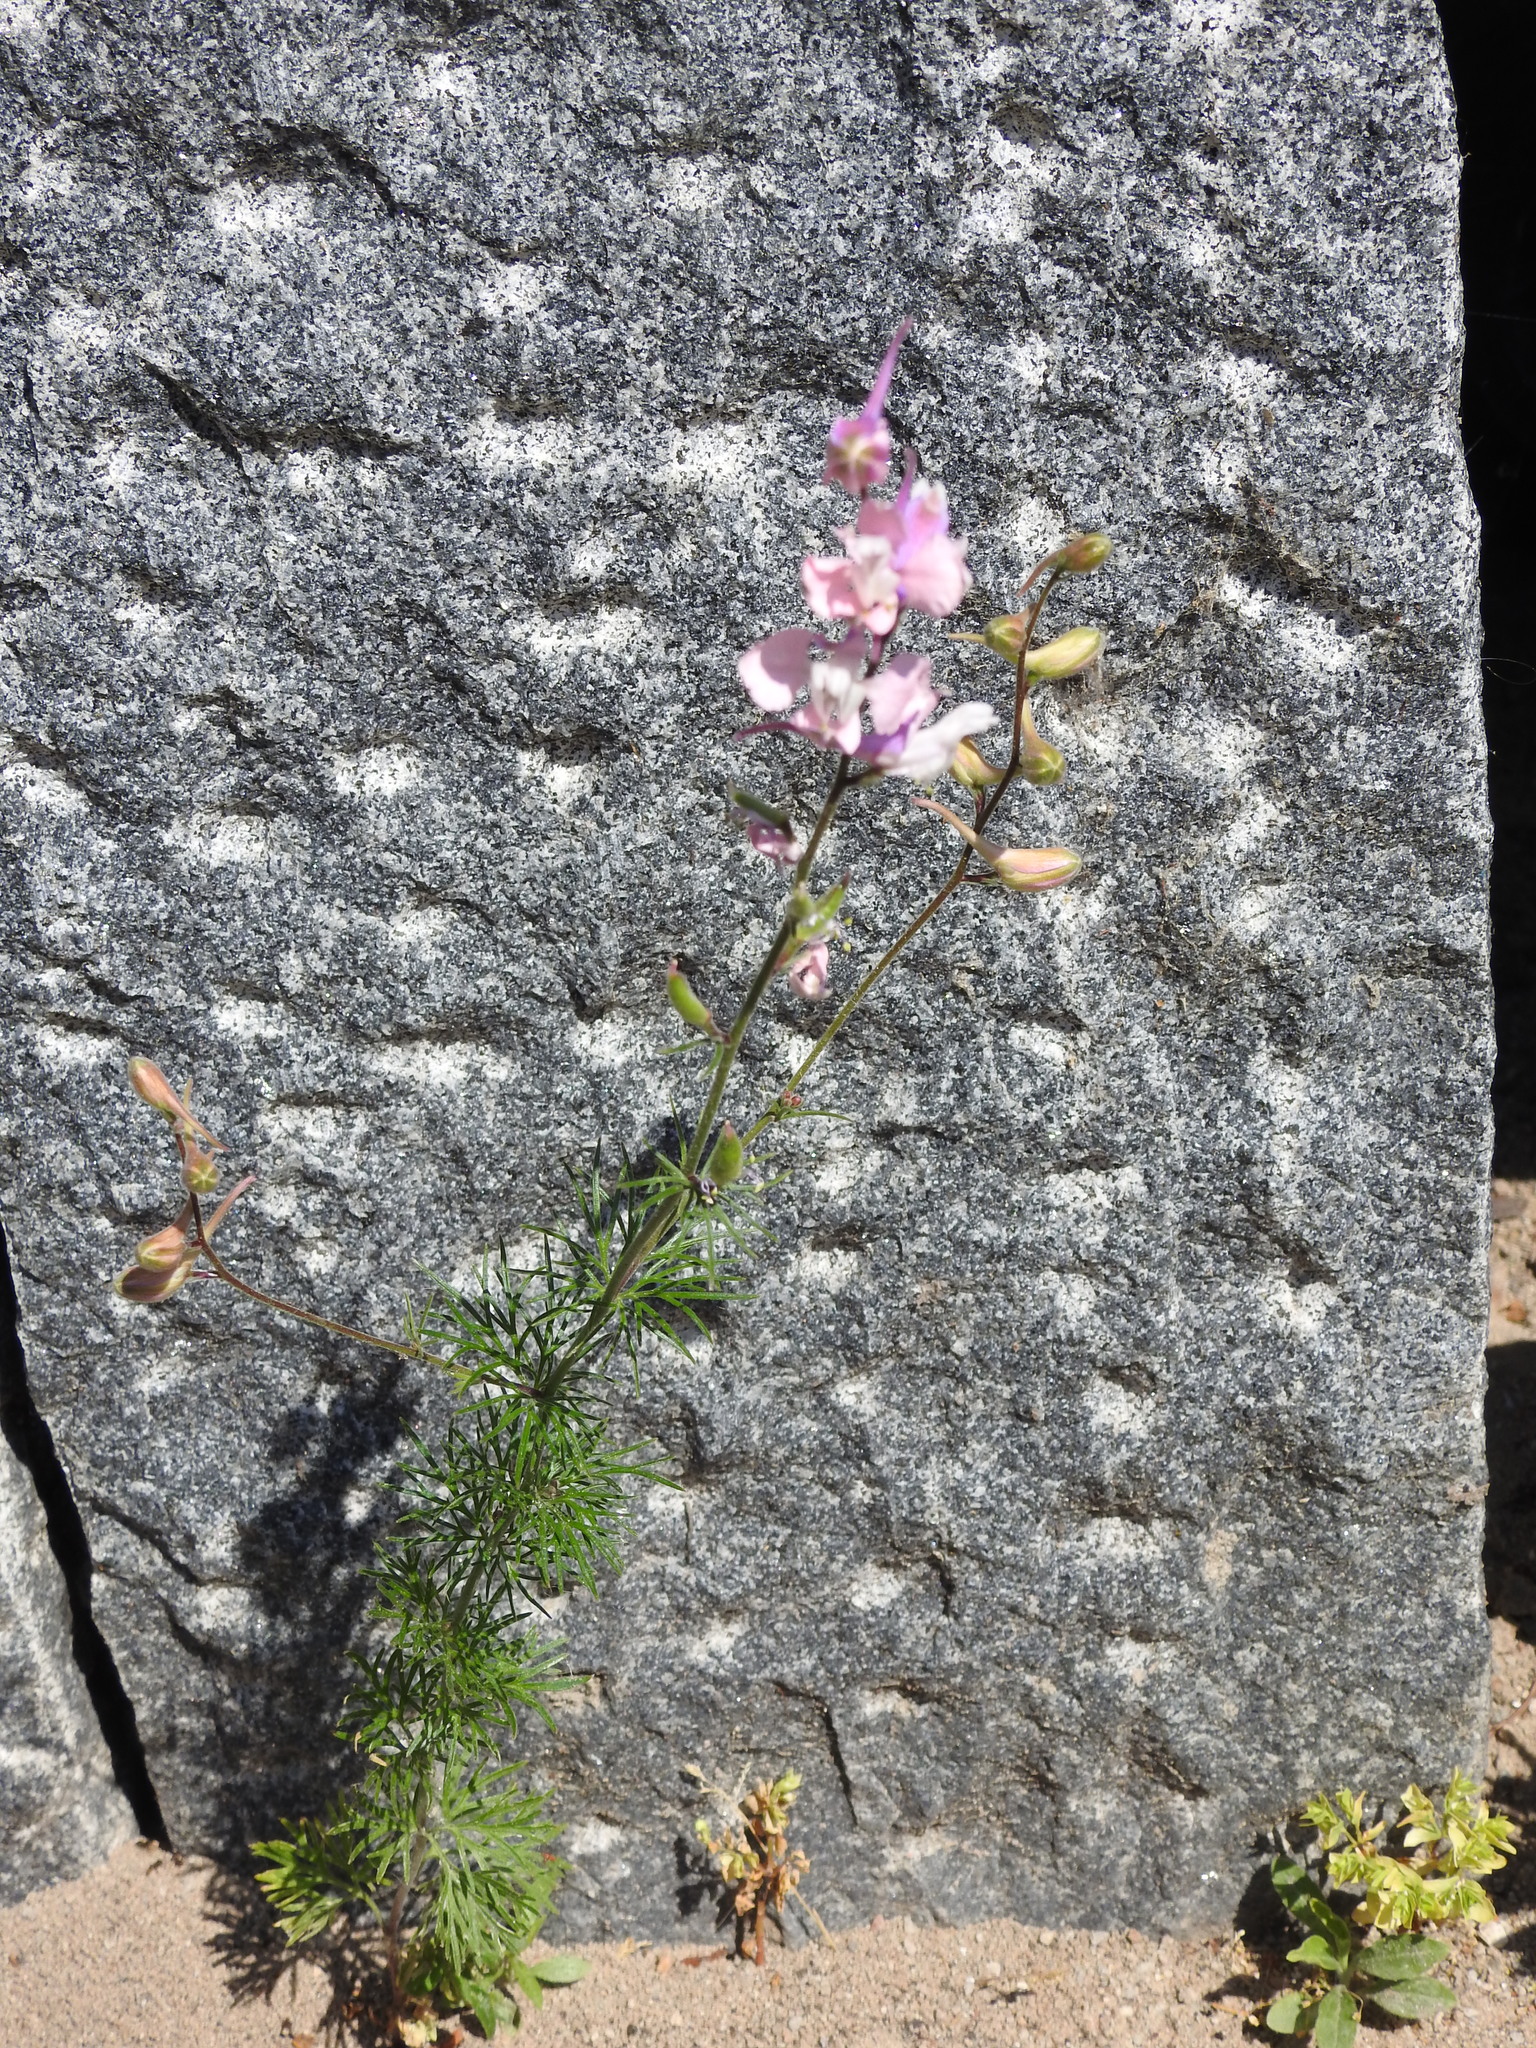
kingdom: Plantae
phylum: Tracheophyta
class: Magnoliopsida
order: Ranunculales
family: Ranunculaceae
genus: Delphinium
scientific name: Delphinium ajacis
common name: Doubtful knight's-spur
